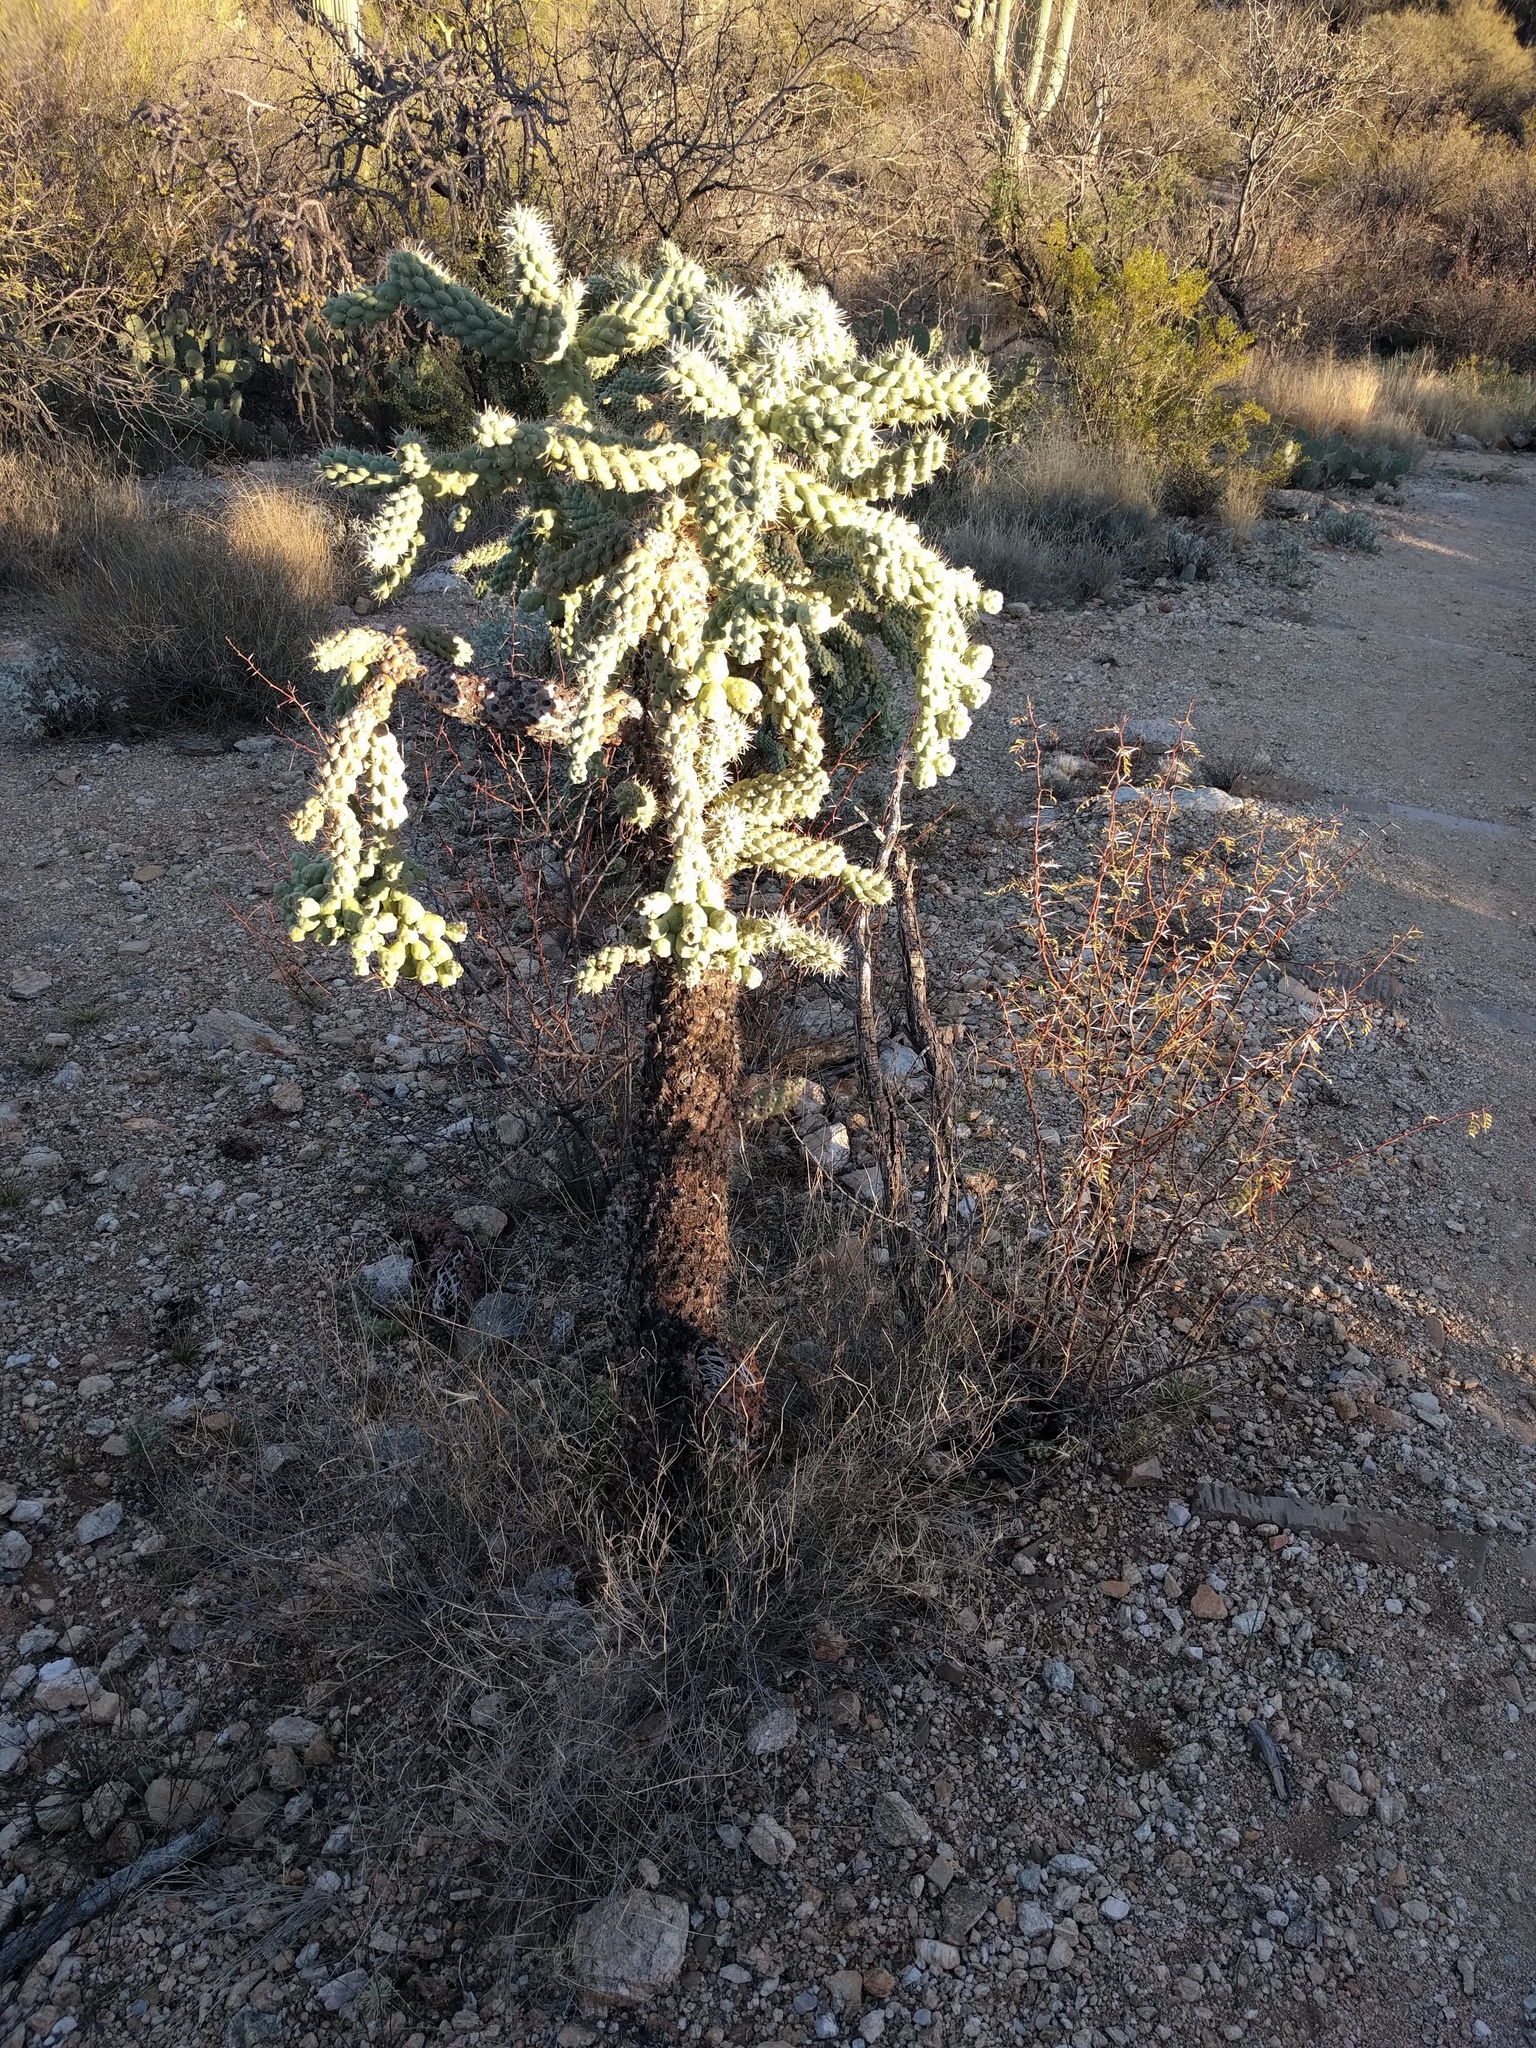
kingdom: Plantae
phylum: Tracheophyta
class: Magnoliopsida
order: Caryophyllales
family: Cactaceae
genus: Cylindropuntia
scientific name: Cylindropuntia fulgida
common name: Jumping cholla
